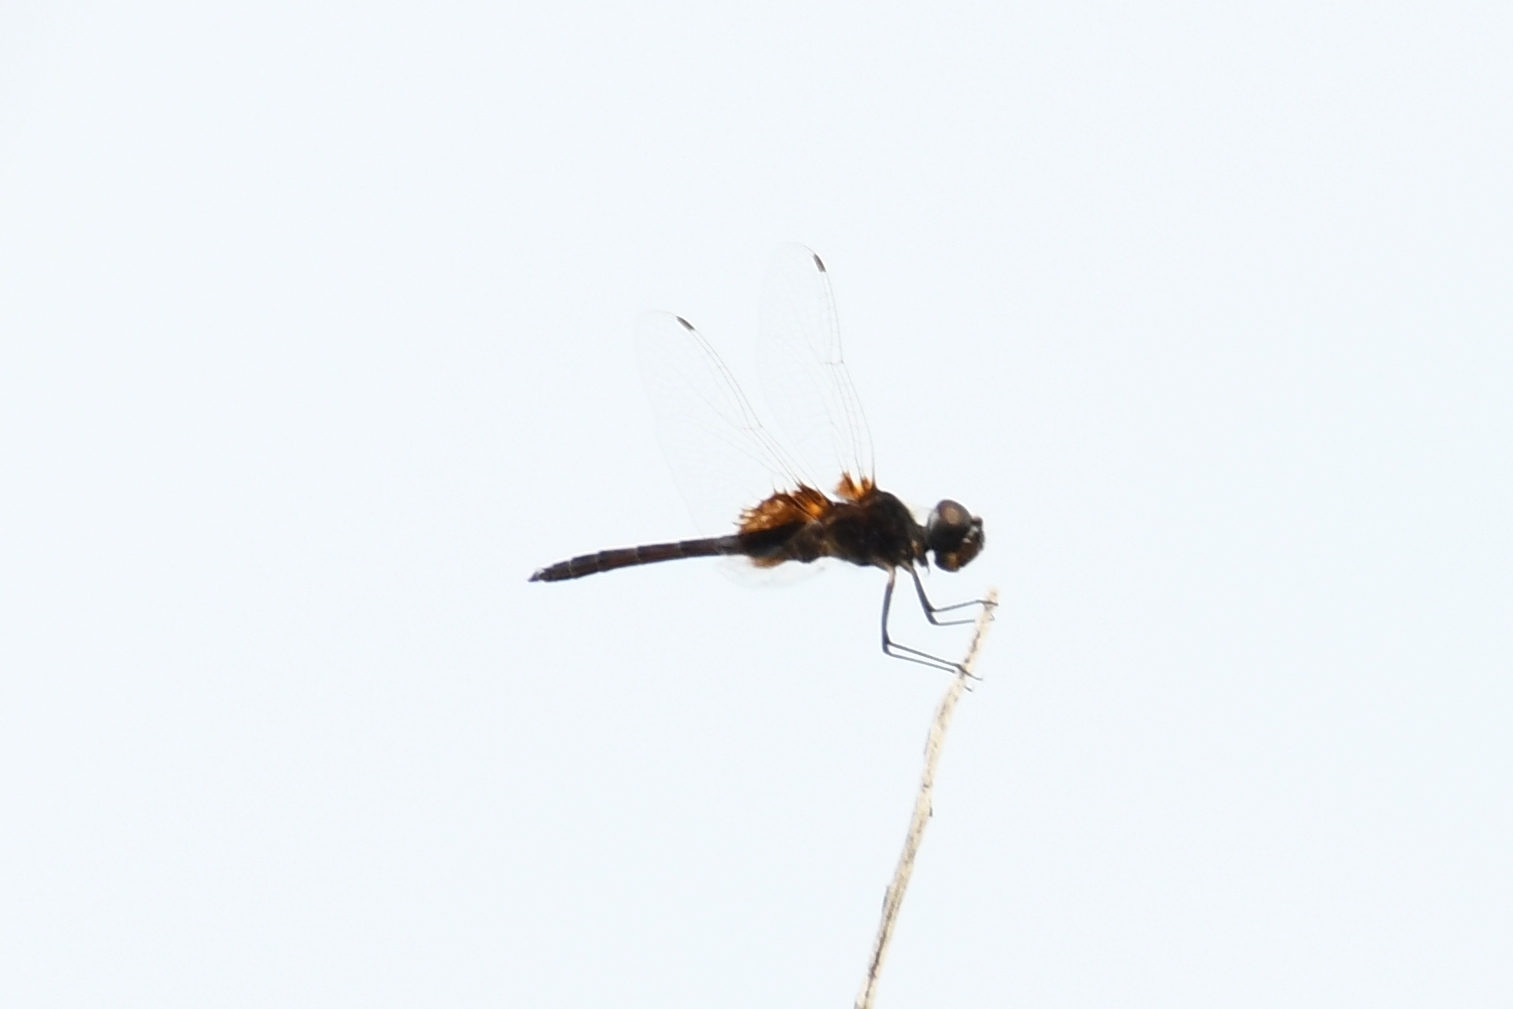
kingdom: Animalia
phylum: Arthropoda
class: Insecta
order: Odonata
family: Libellulidae
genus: Macrodiplax
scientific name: Macrodiplax balteata
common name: Marl pennant
